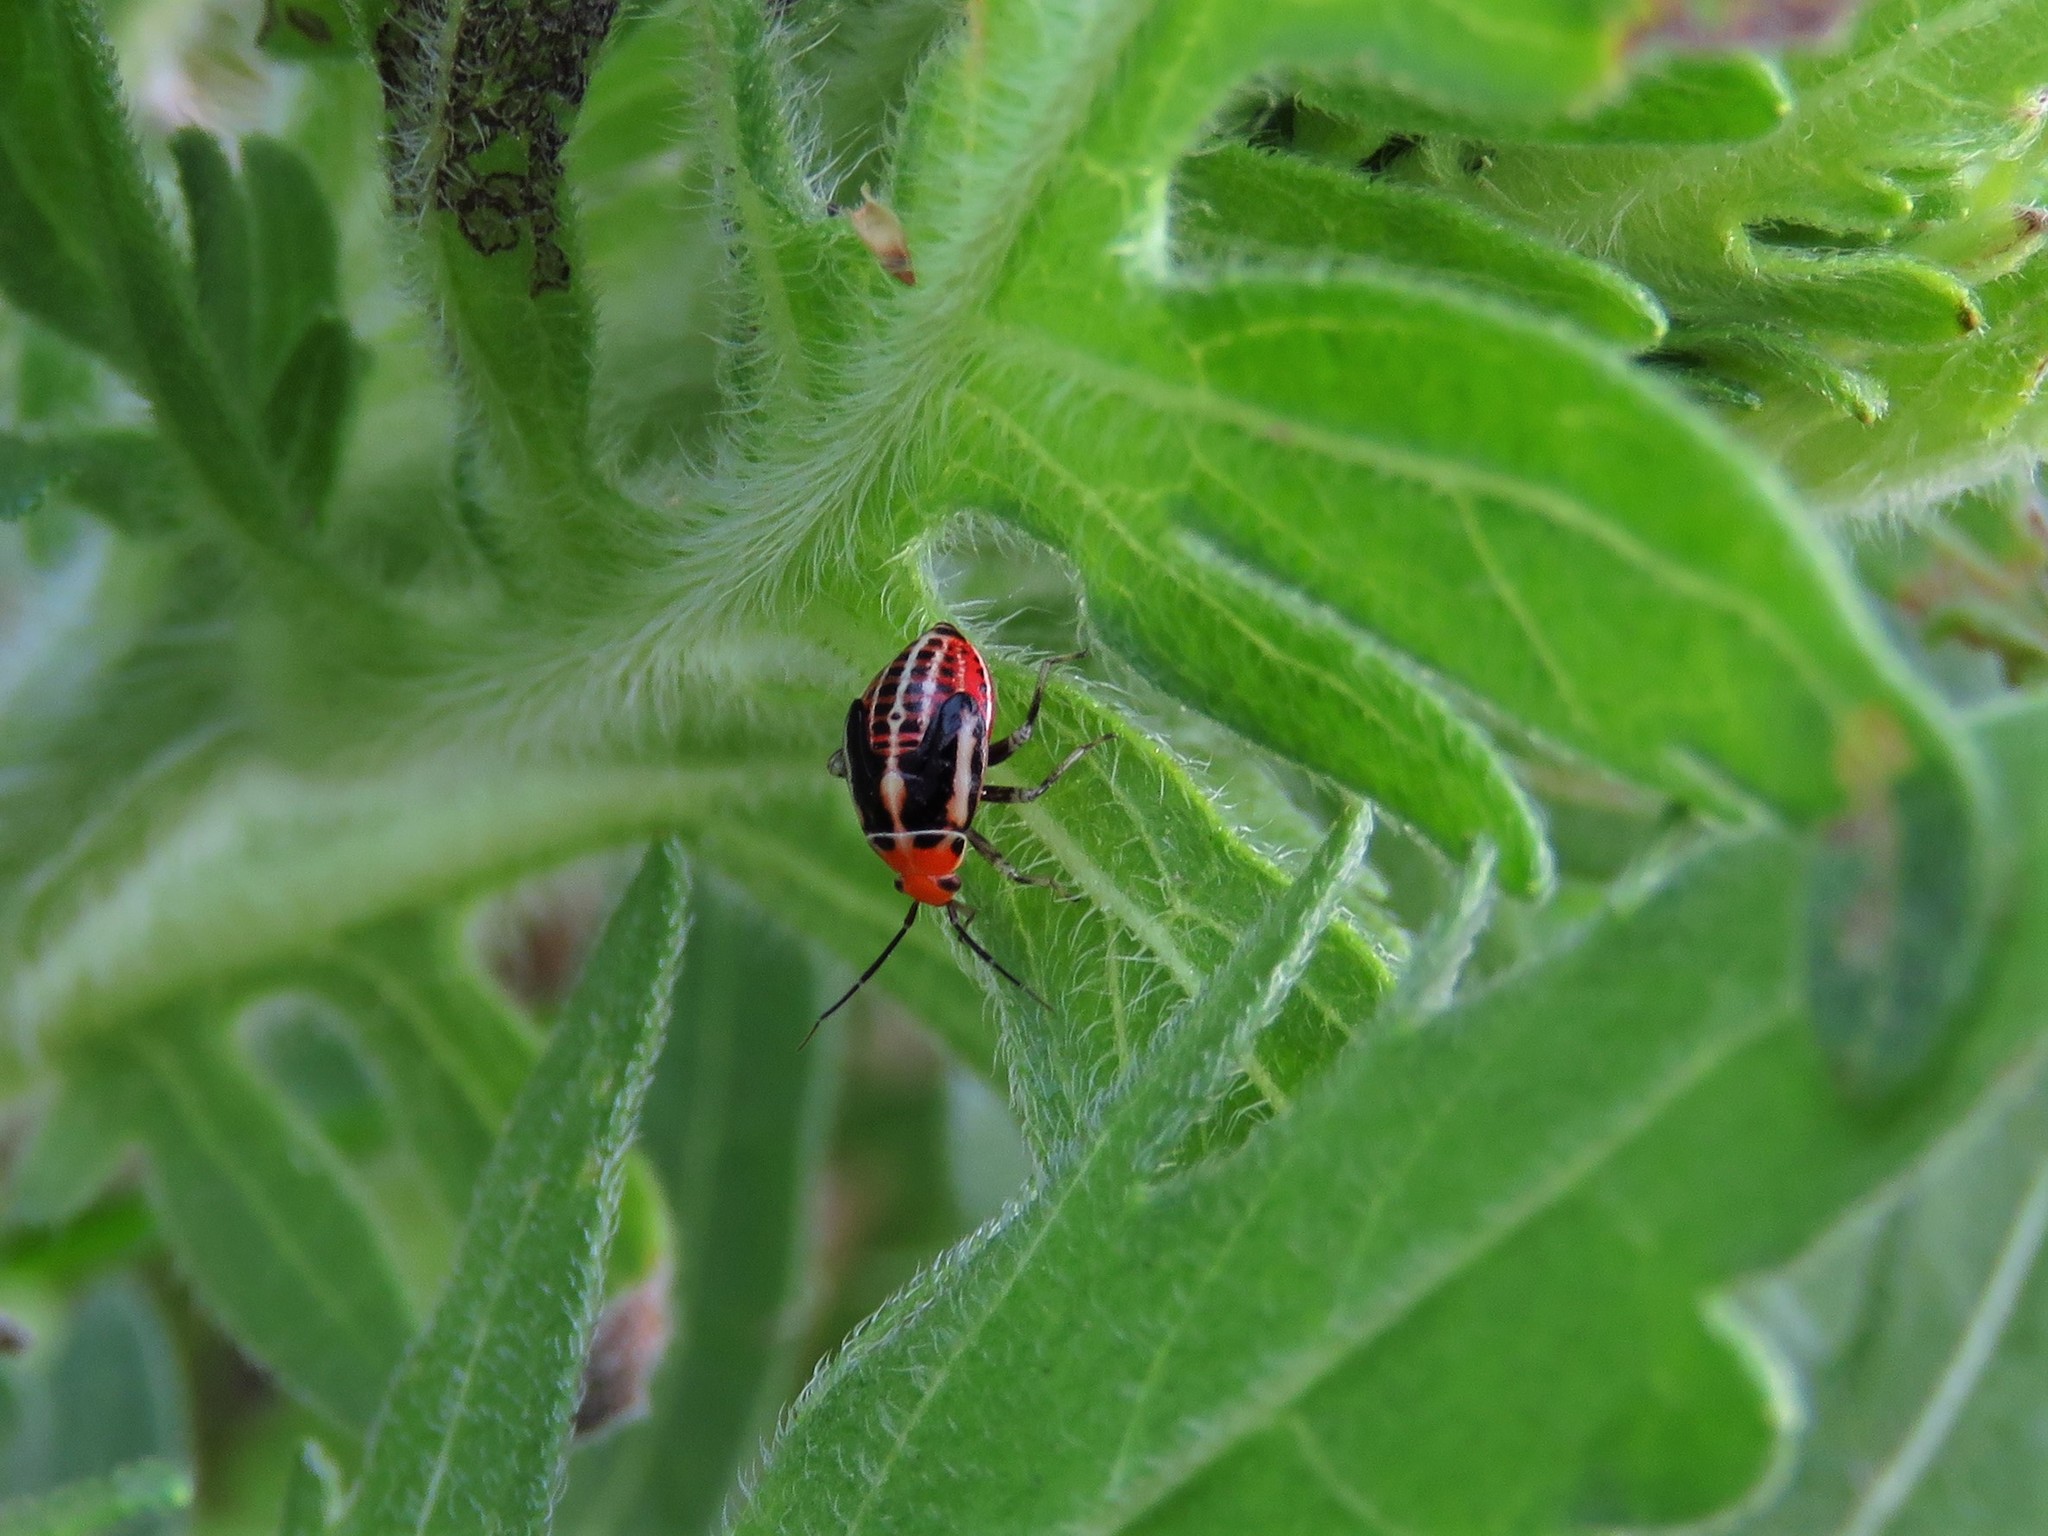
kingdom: Animalia
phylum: Arthropoda
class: Insecta
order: Hemiptera
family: Miridae
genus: Poecilocapsus
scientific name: Poecilocapsus lineatus
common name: Four-lined plant bug
